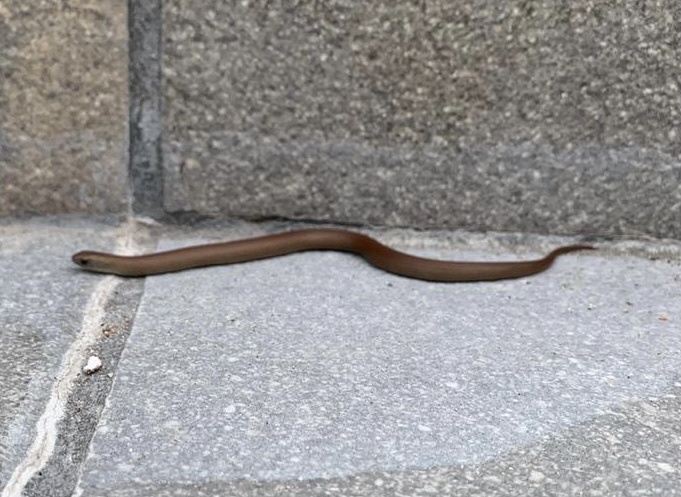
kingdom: Animalia
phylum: Chordata
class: Squamata
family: Pseudoxyrhophiidae
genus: Duberria
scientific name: Duberria lutrix
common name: Common slug eater
